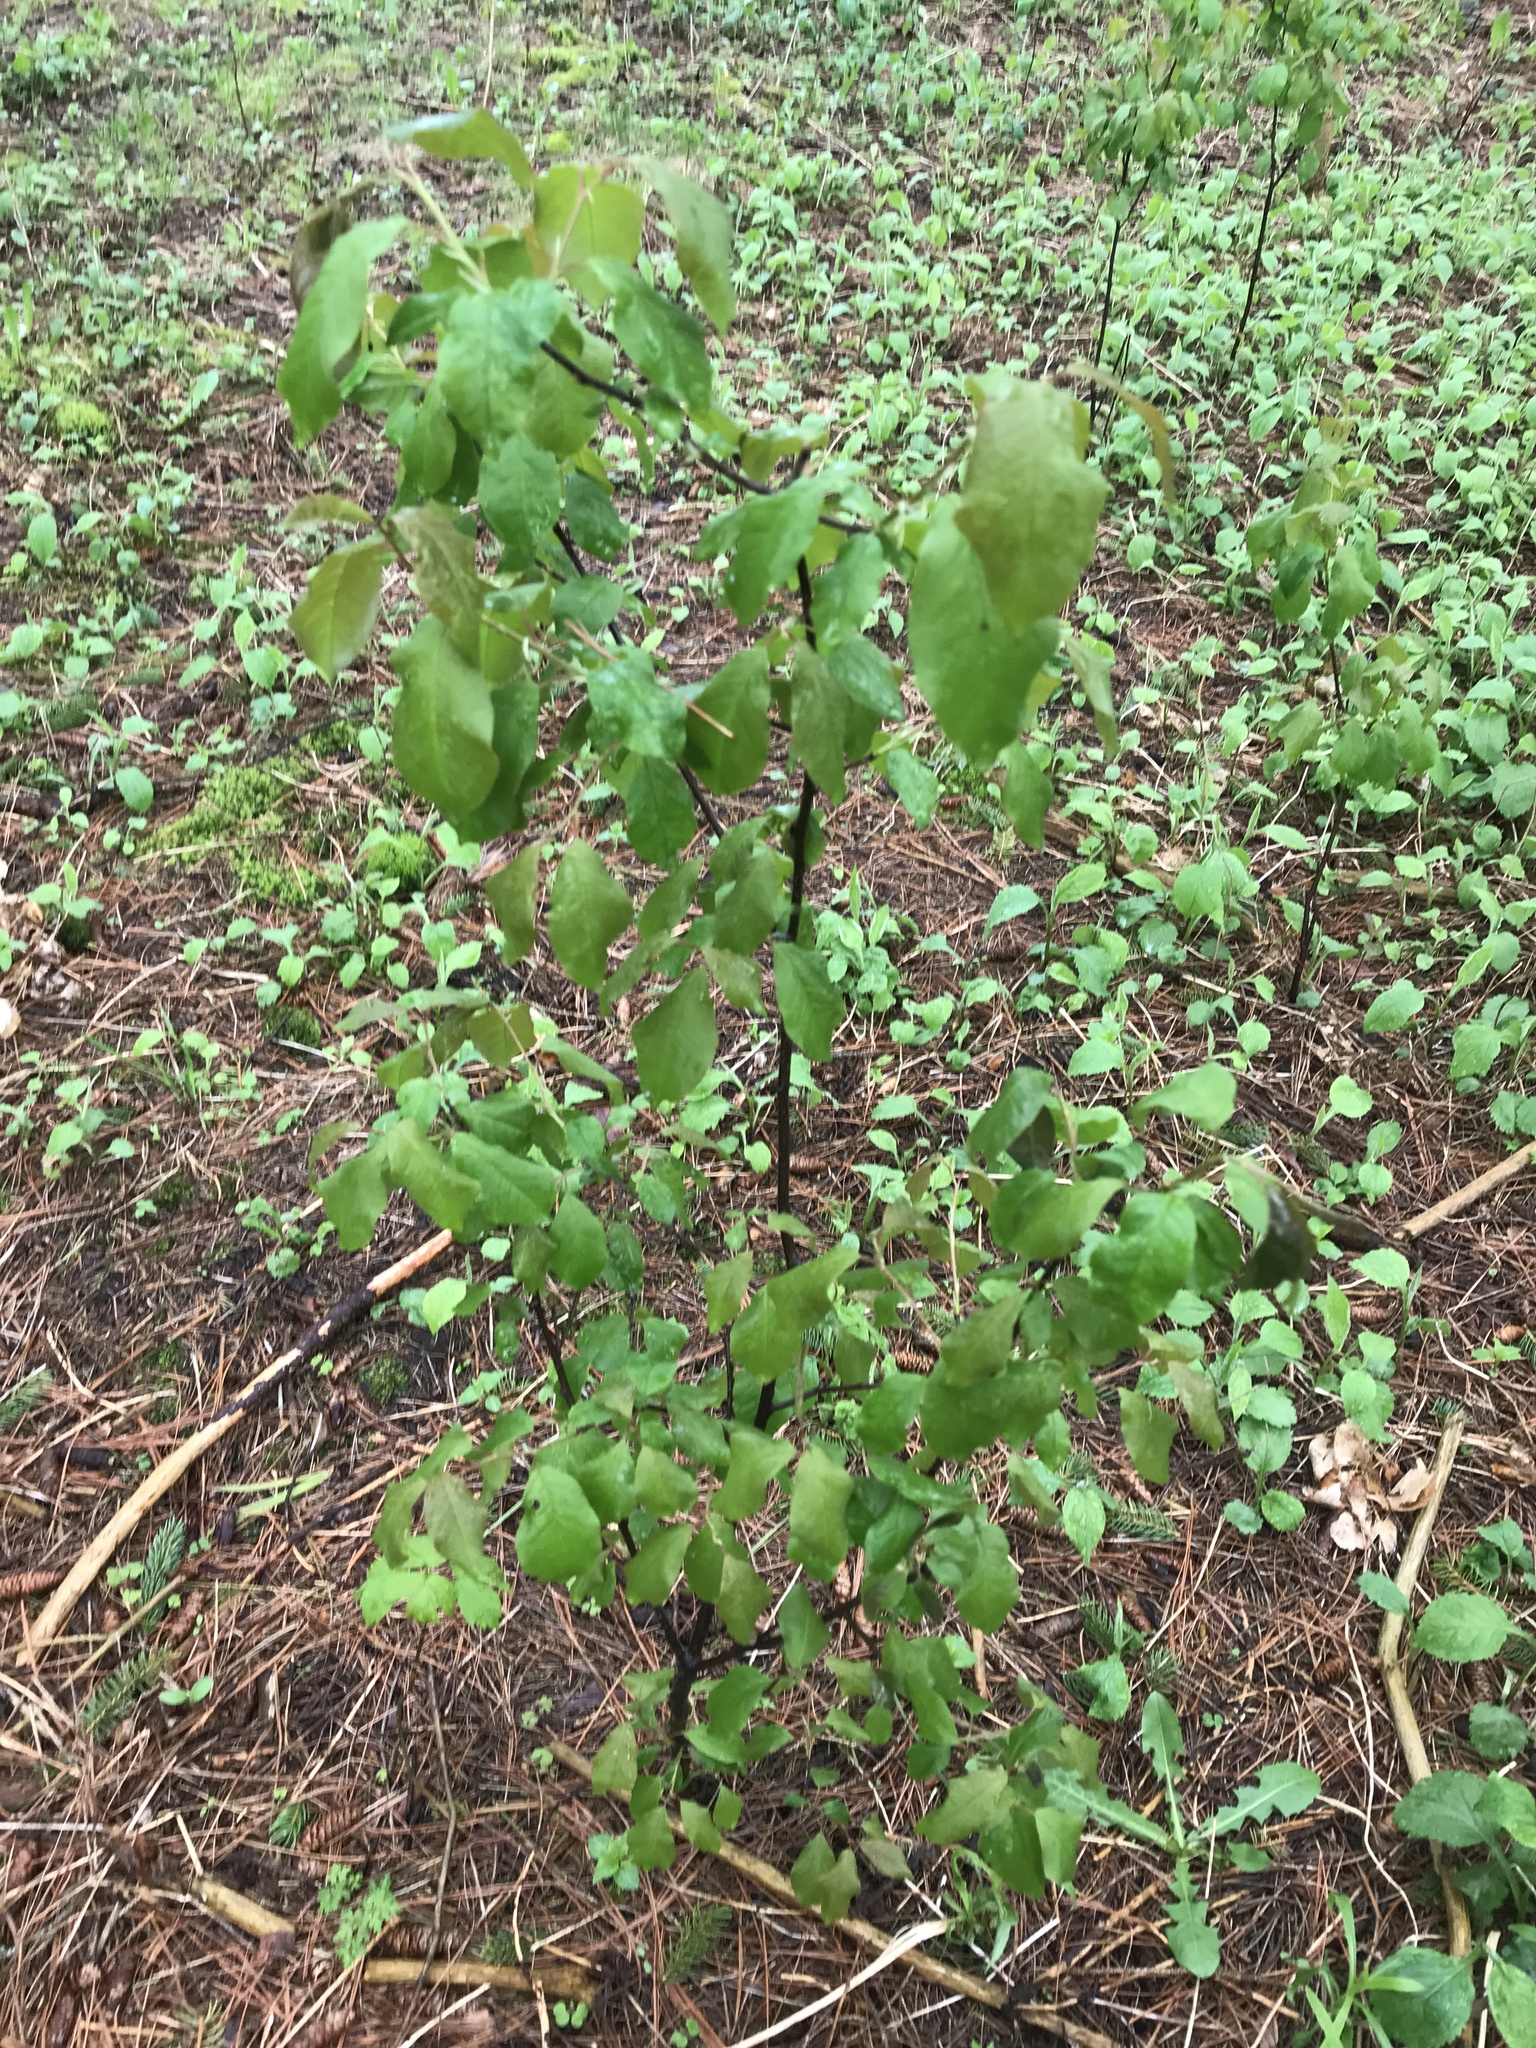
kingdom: Plantae
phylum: Tracheophyta
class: Magnoliopsida
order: Rosales
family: Rosaceae
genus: Prunus
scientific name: Prunus virginiana
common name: Chokecherry
